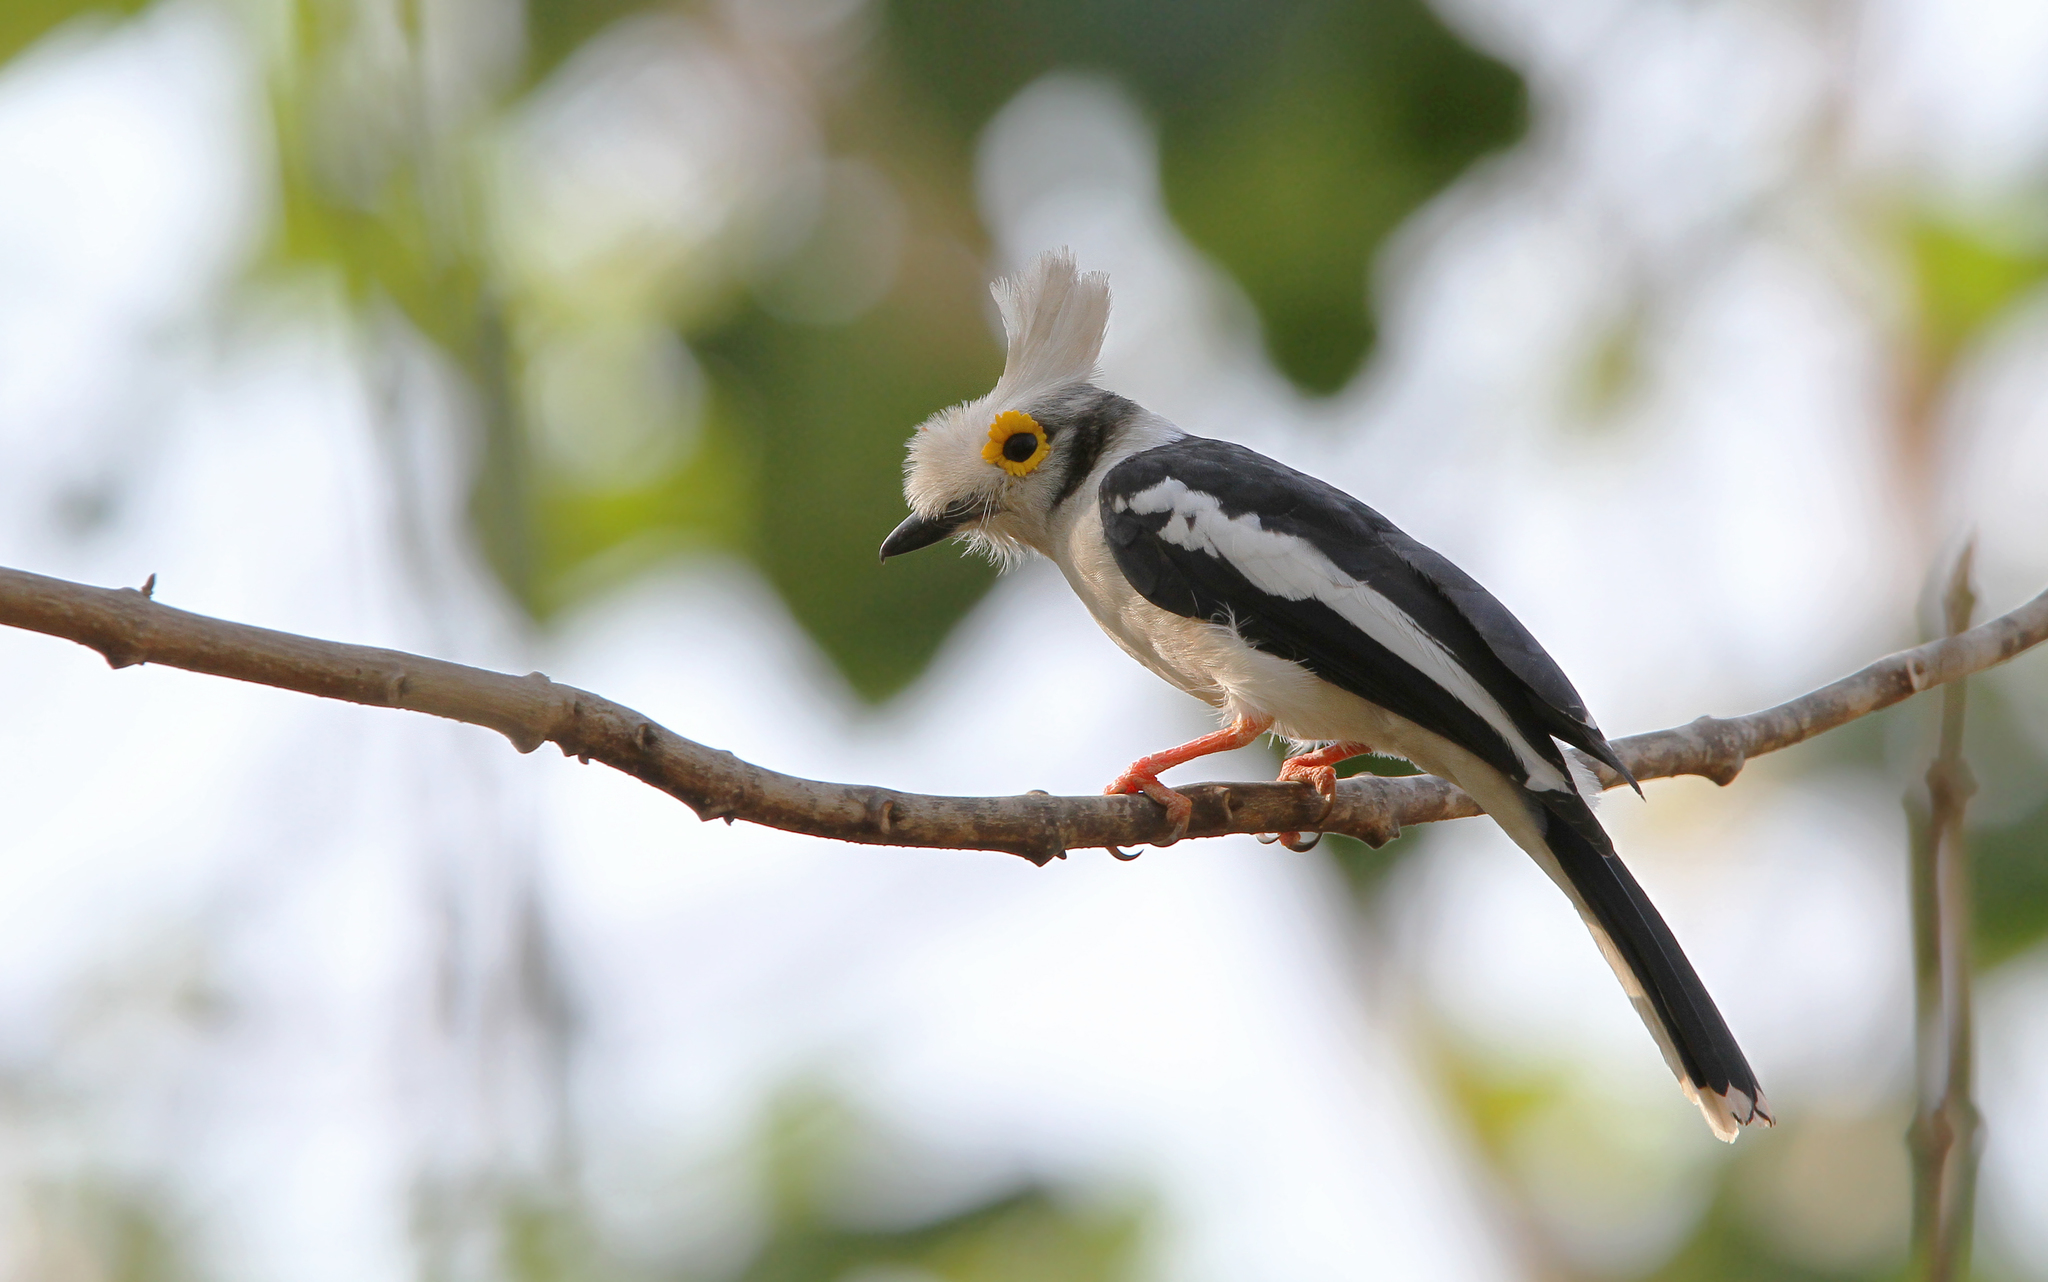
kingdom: Animalia
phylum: Chordata
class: Aves
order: Passeriformes
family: Prionopidae
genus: Prionops
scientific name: Prionops plumatus
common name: White-crested helmetshrike
